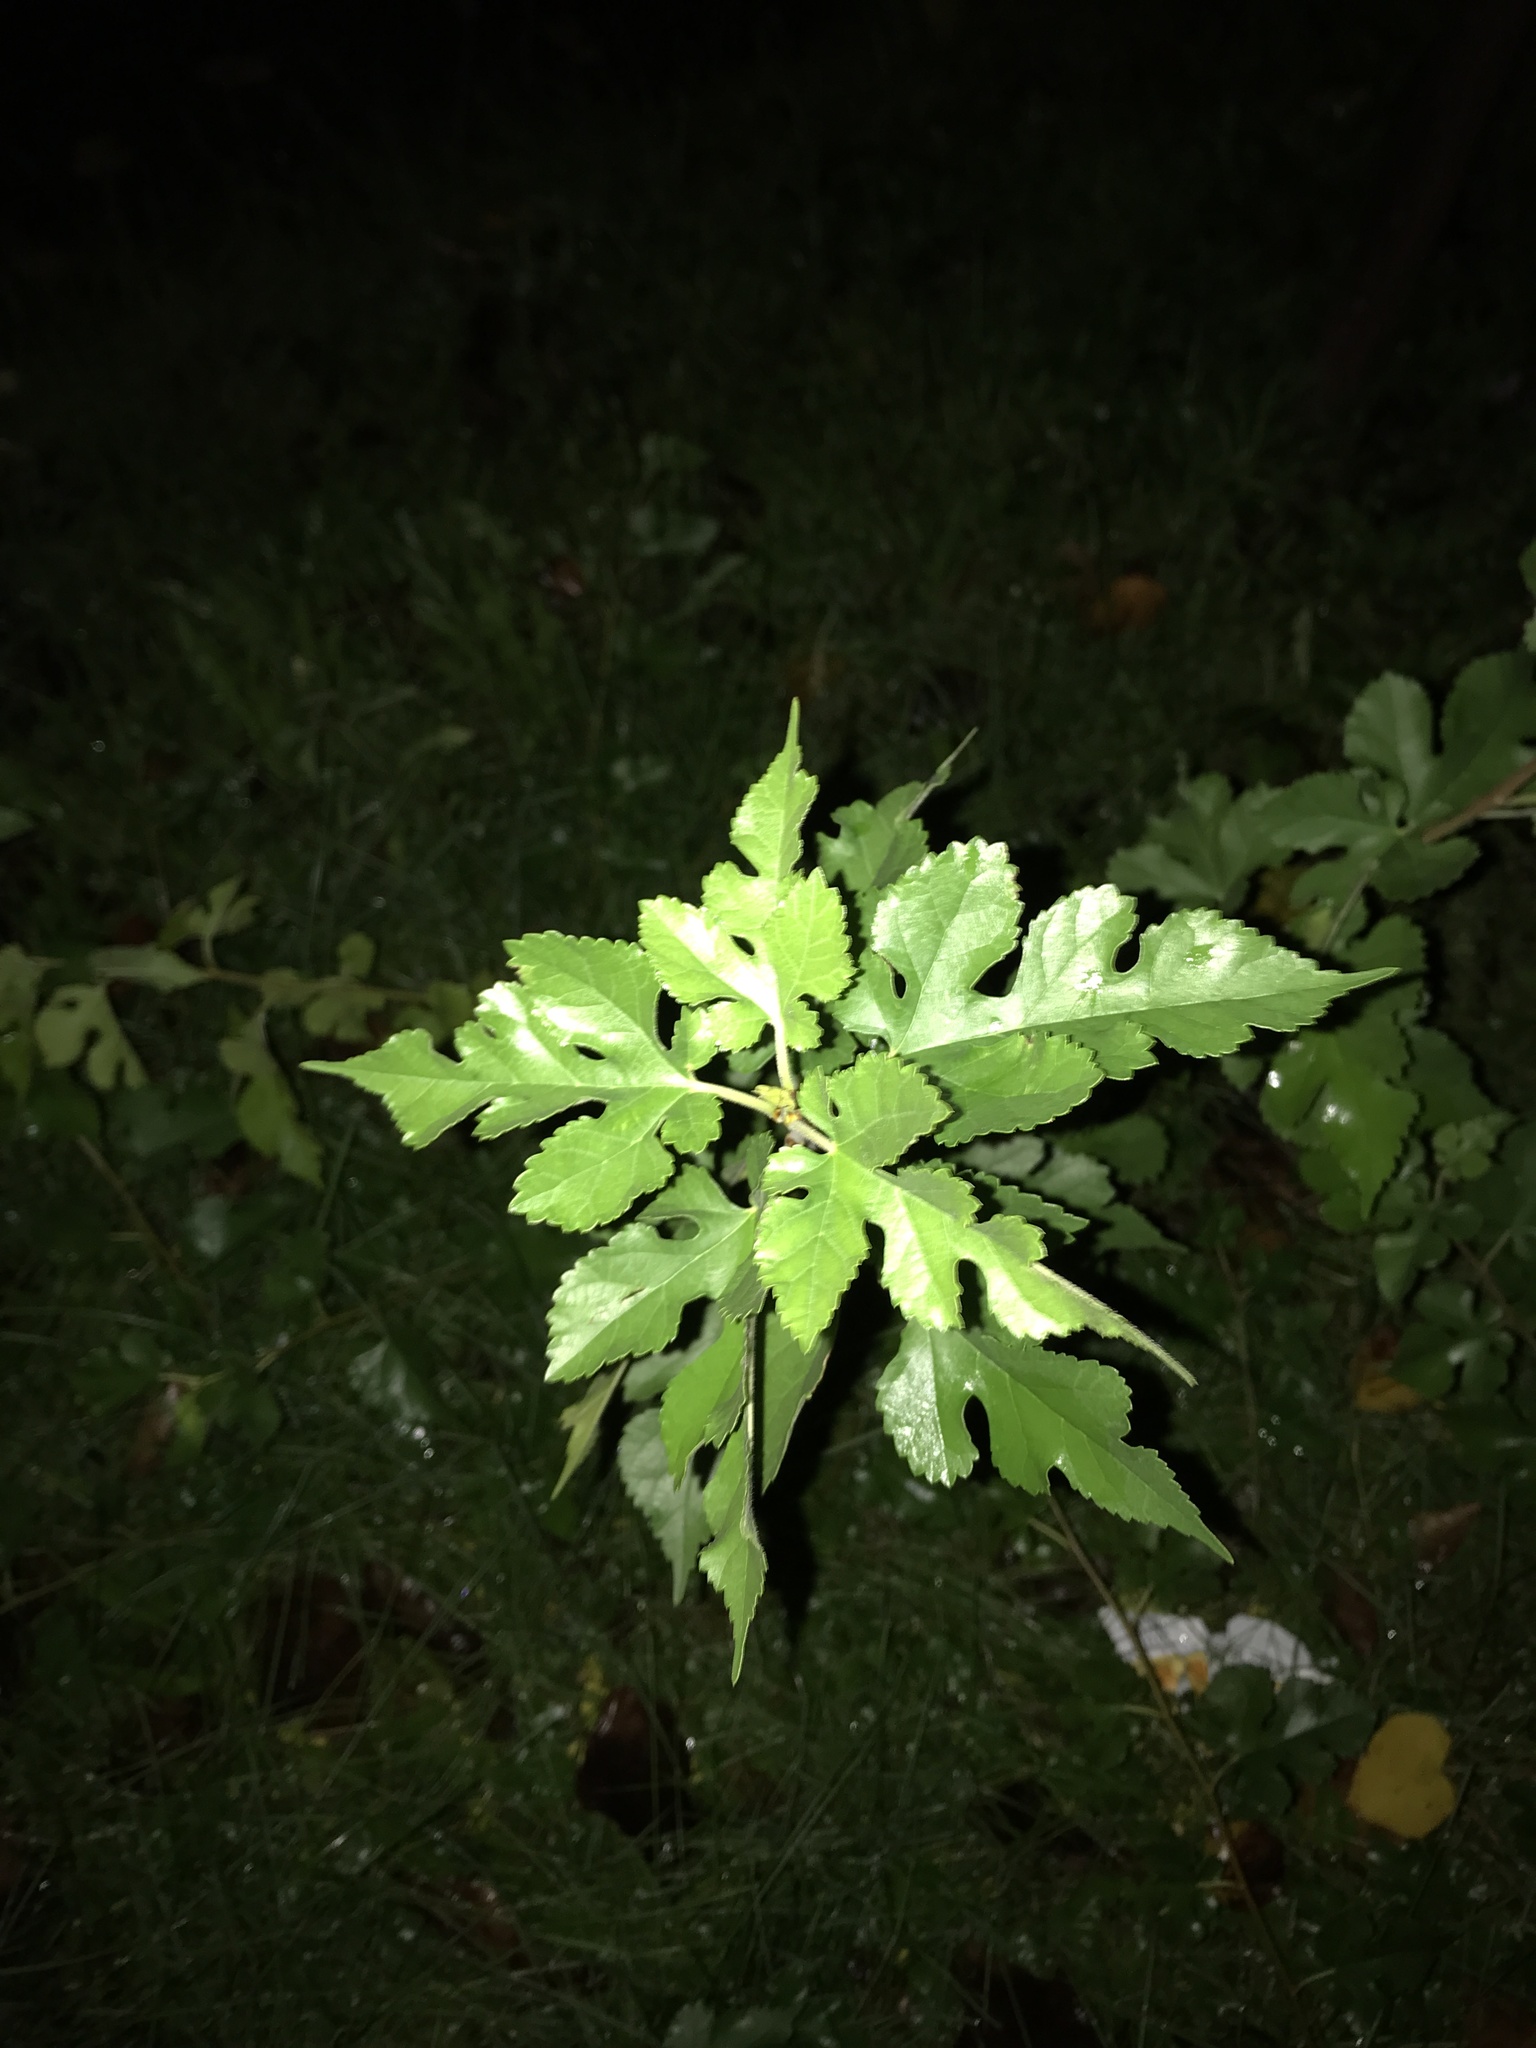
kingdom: Plantae
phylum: Tracheophyta
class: Magnoliopsida
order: Rosales
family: Moraceae
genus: Morus
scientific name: Morus alba
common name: White mulberry
